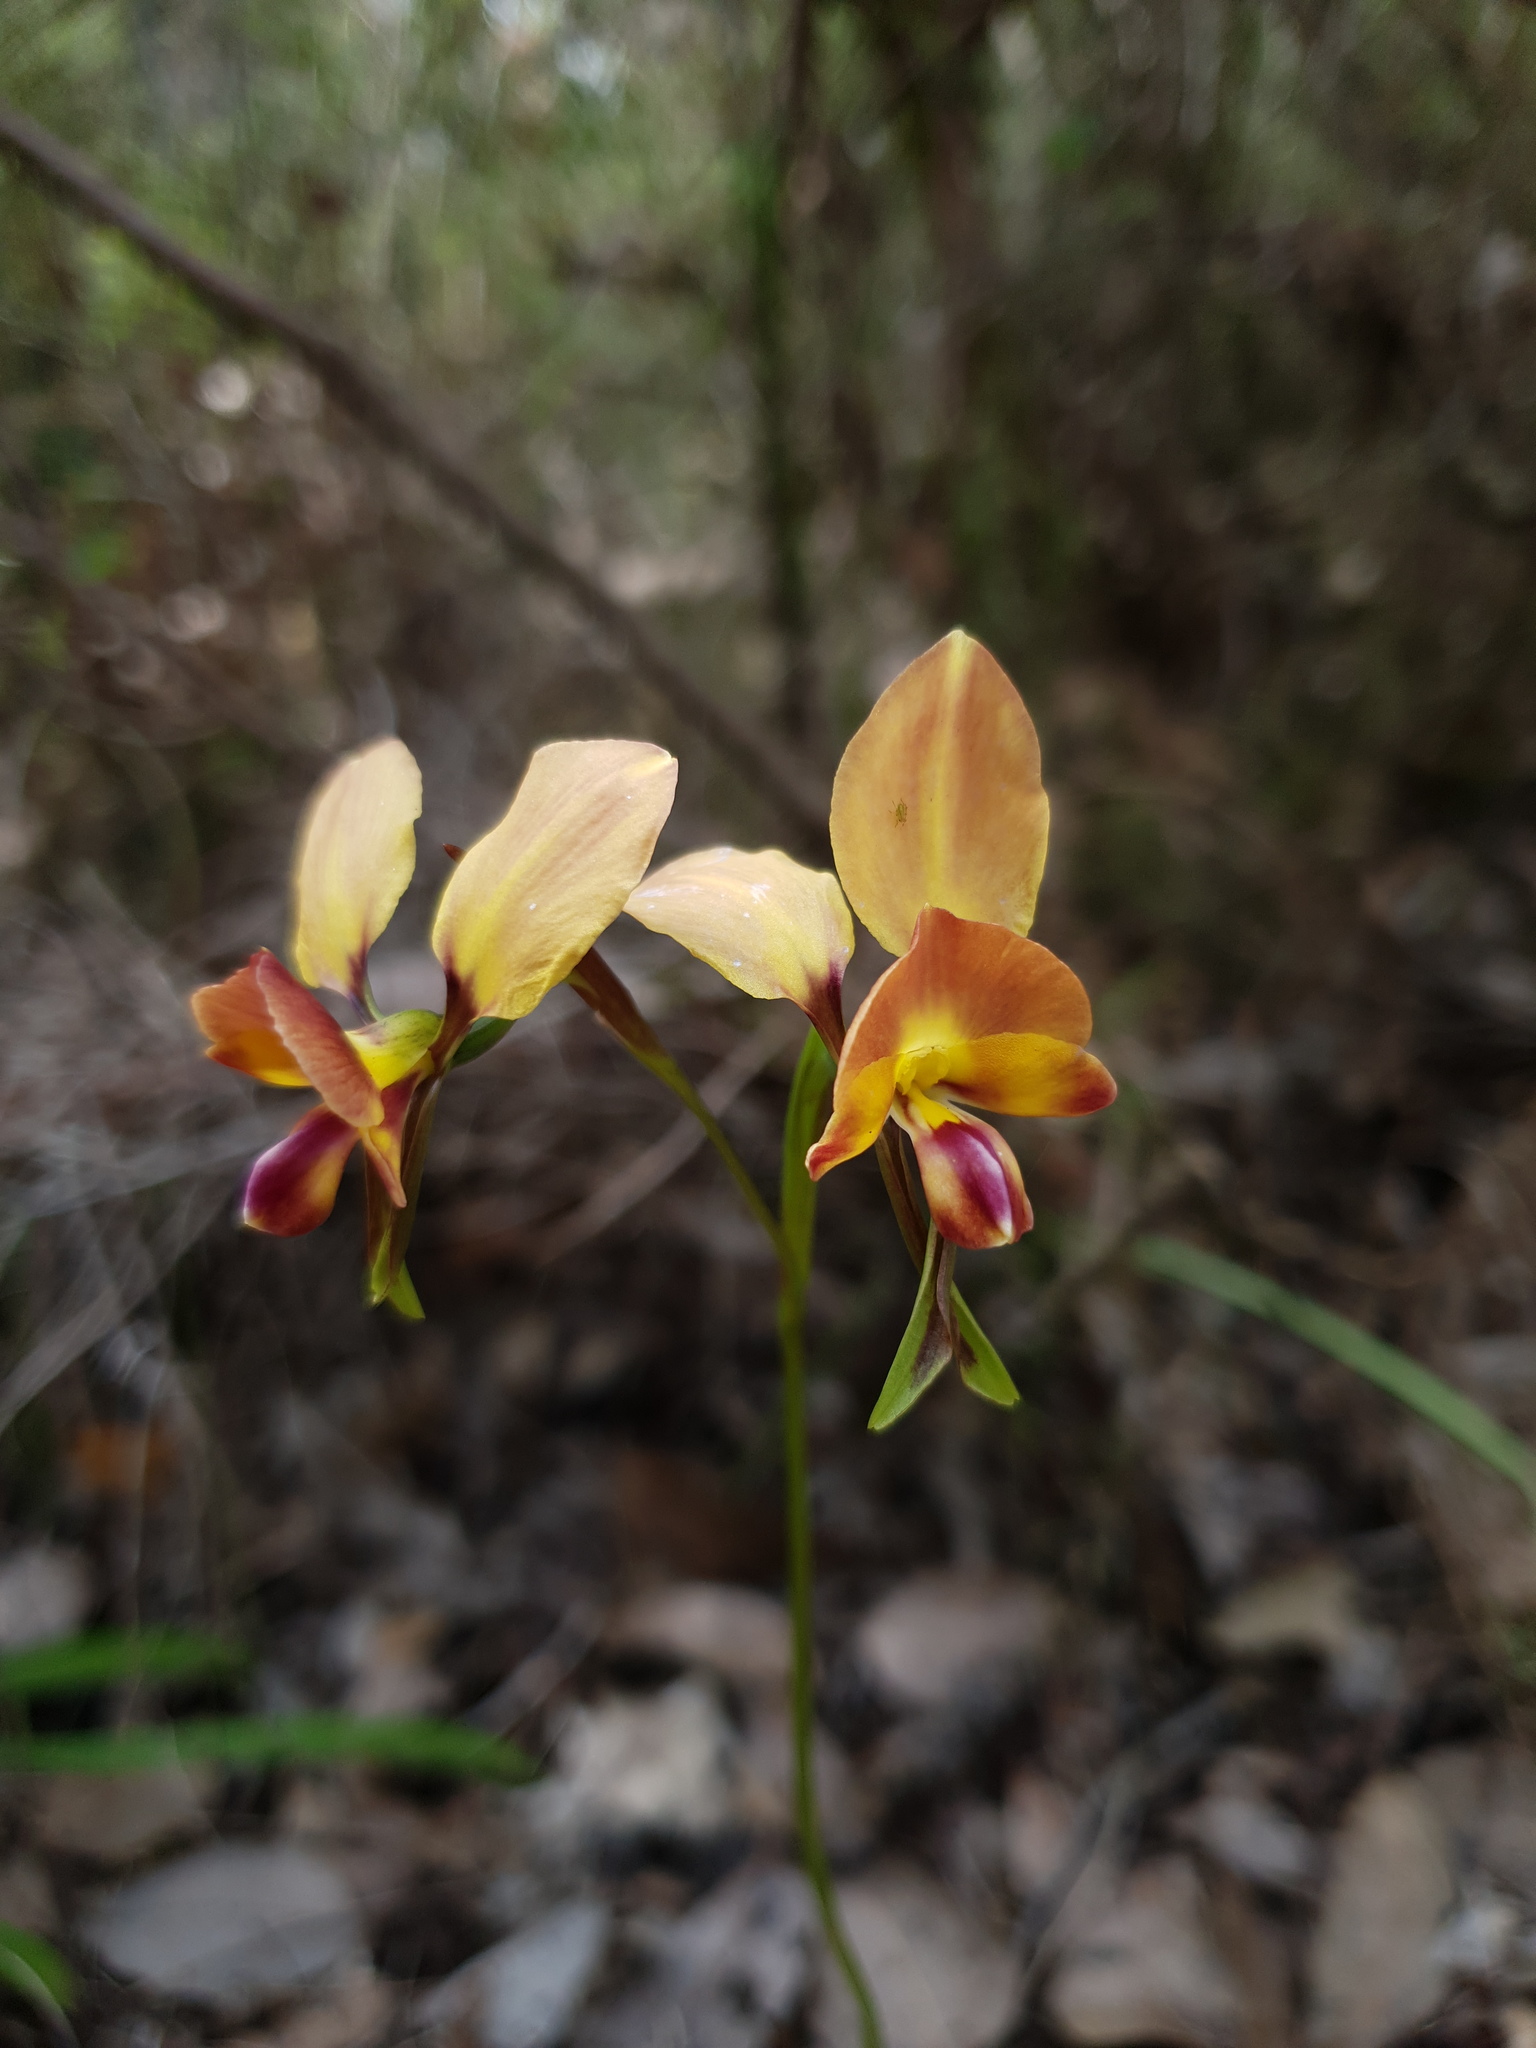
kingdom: Plantae
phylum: Tracheophyta
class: Liliopsida
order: Asparagales
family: Orchidaceae
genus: Diuris
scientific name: Diuris jonesii
